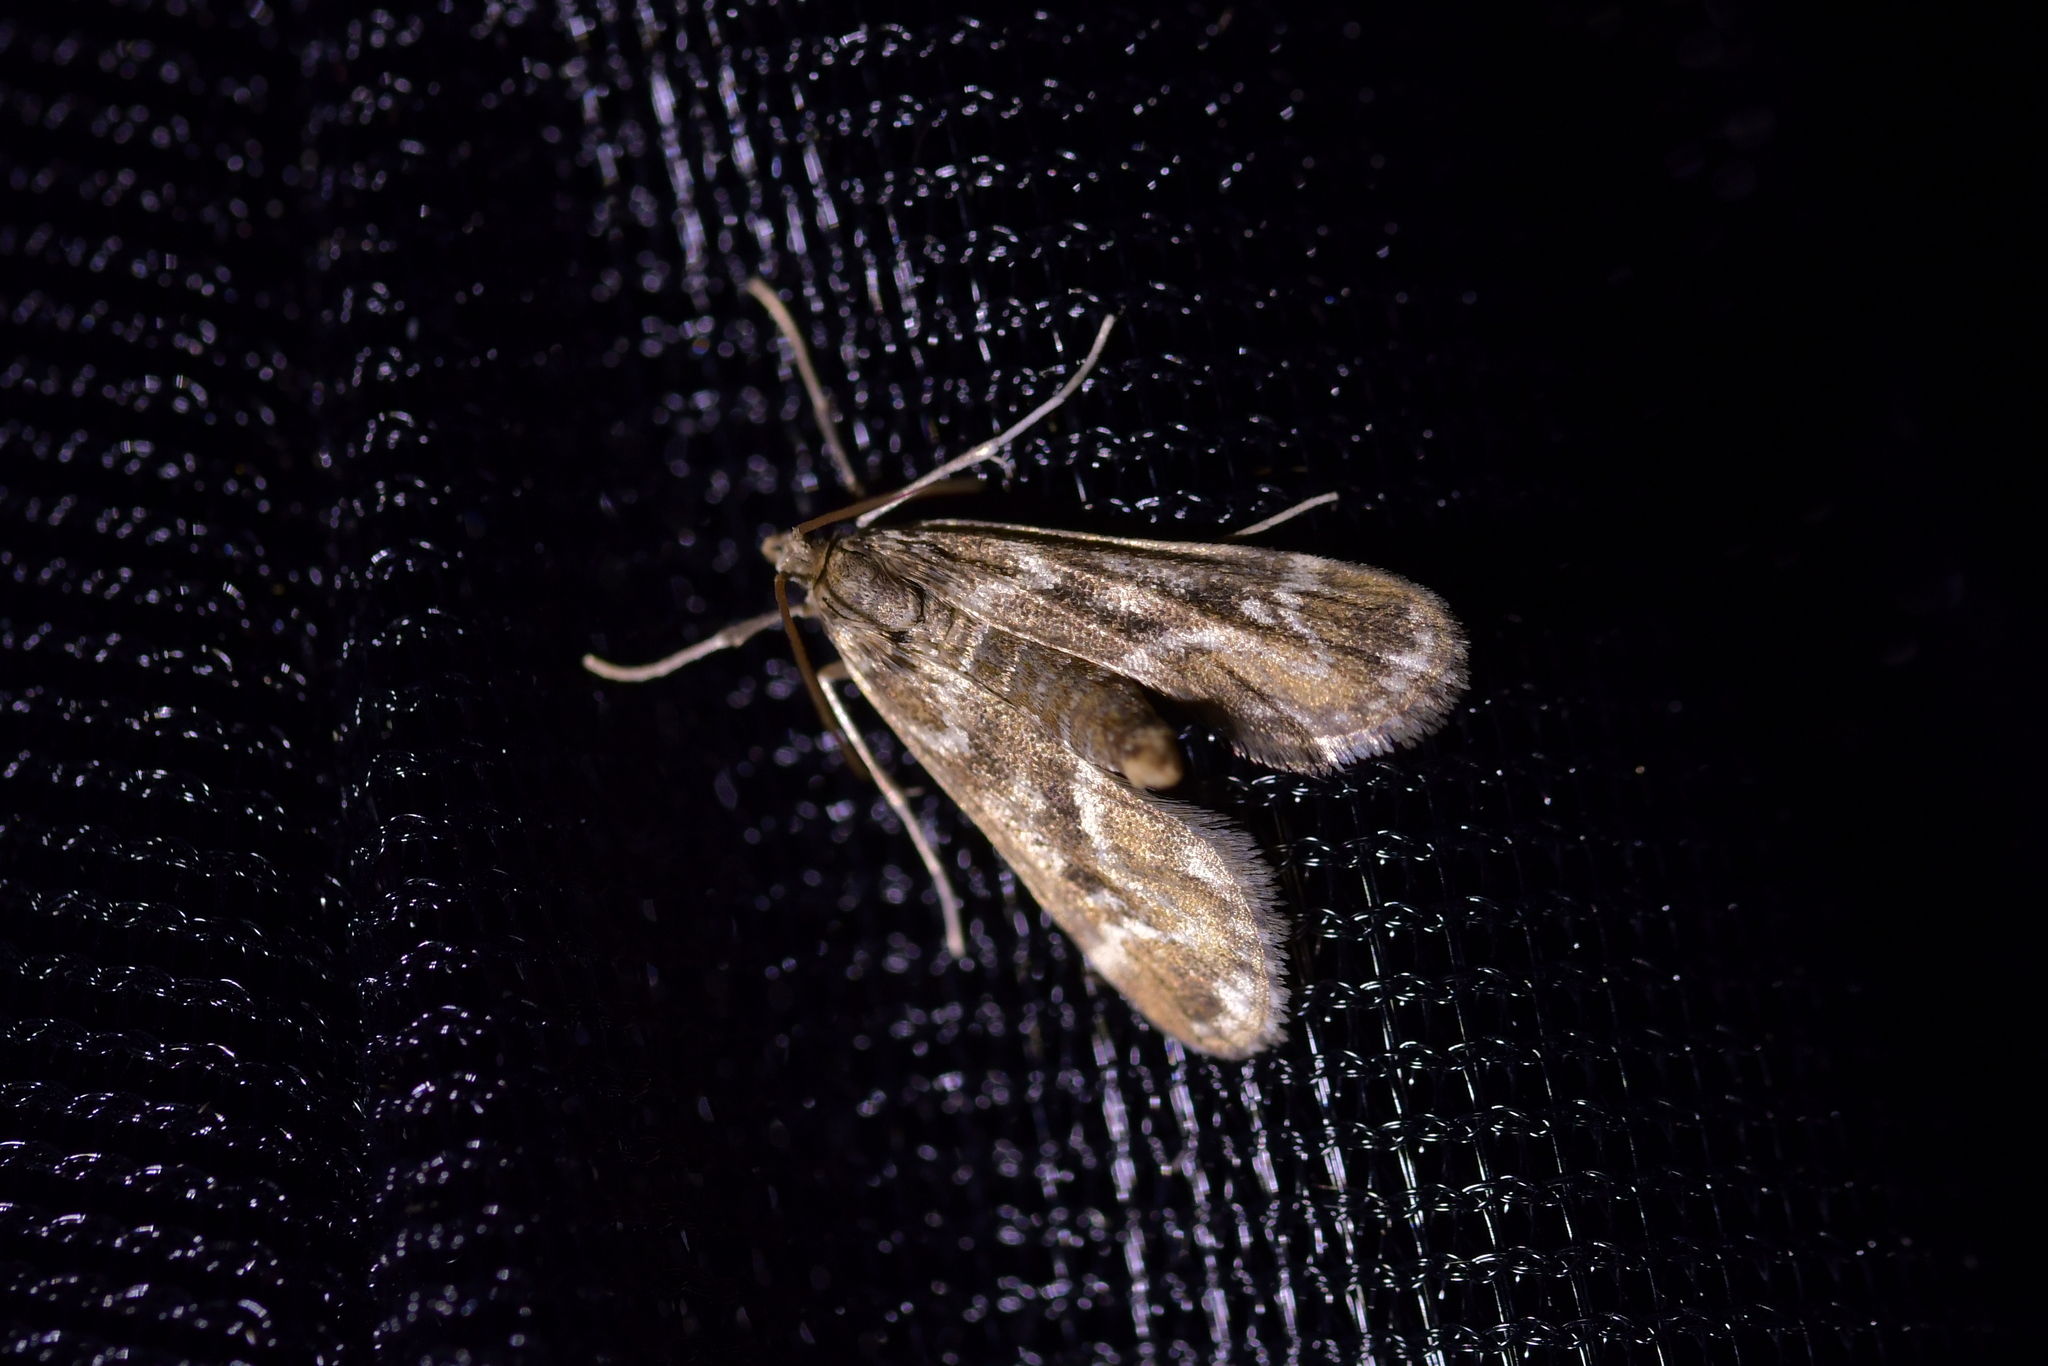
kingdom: Animalia
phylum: Arthropoda
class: Insecta
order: Lepidoptera
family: Crambidae
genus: Hygraula
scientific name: Hygraula nitens
